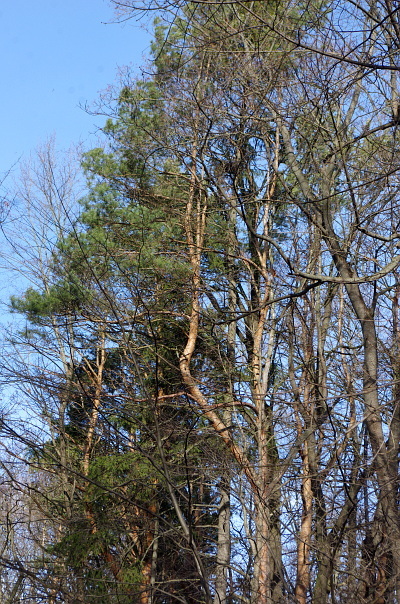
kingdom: Plantae
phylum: Tracheophyta
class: Pinopsida
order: Pinales
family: Pinaceae
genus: Pinus
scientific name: Pinus sylvestris
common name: Scots pine
